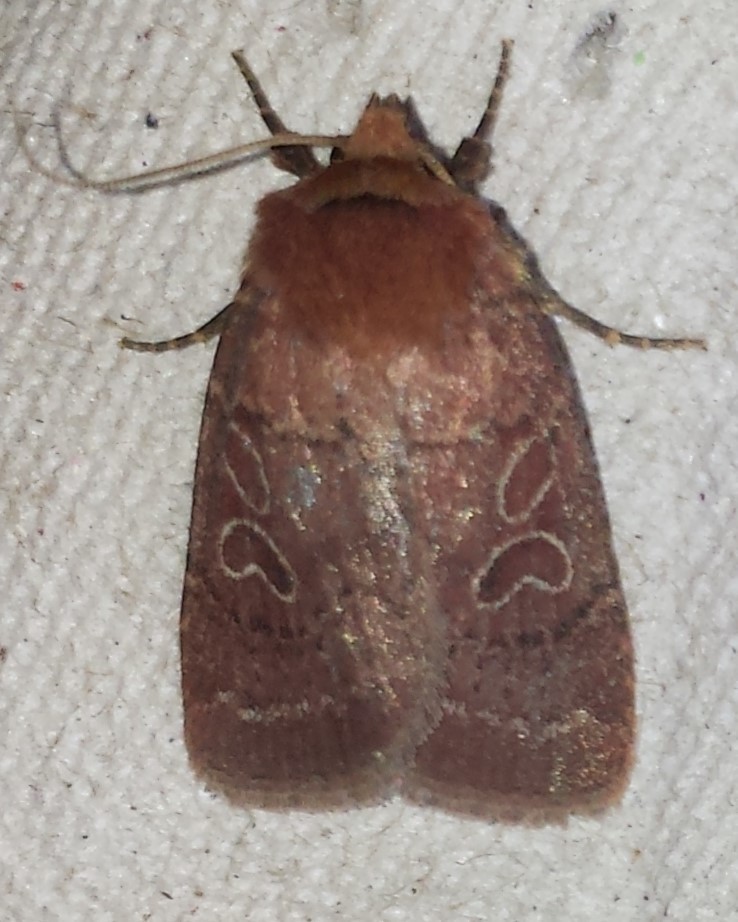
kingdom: Animalia
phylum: Arthropoda
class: Insecta
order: Lepidoptera
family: Noctuidae
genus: Orthodes
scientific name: Orthodes cynica
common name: Cynical quaker
